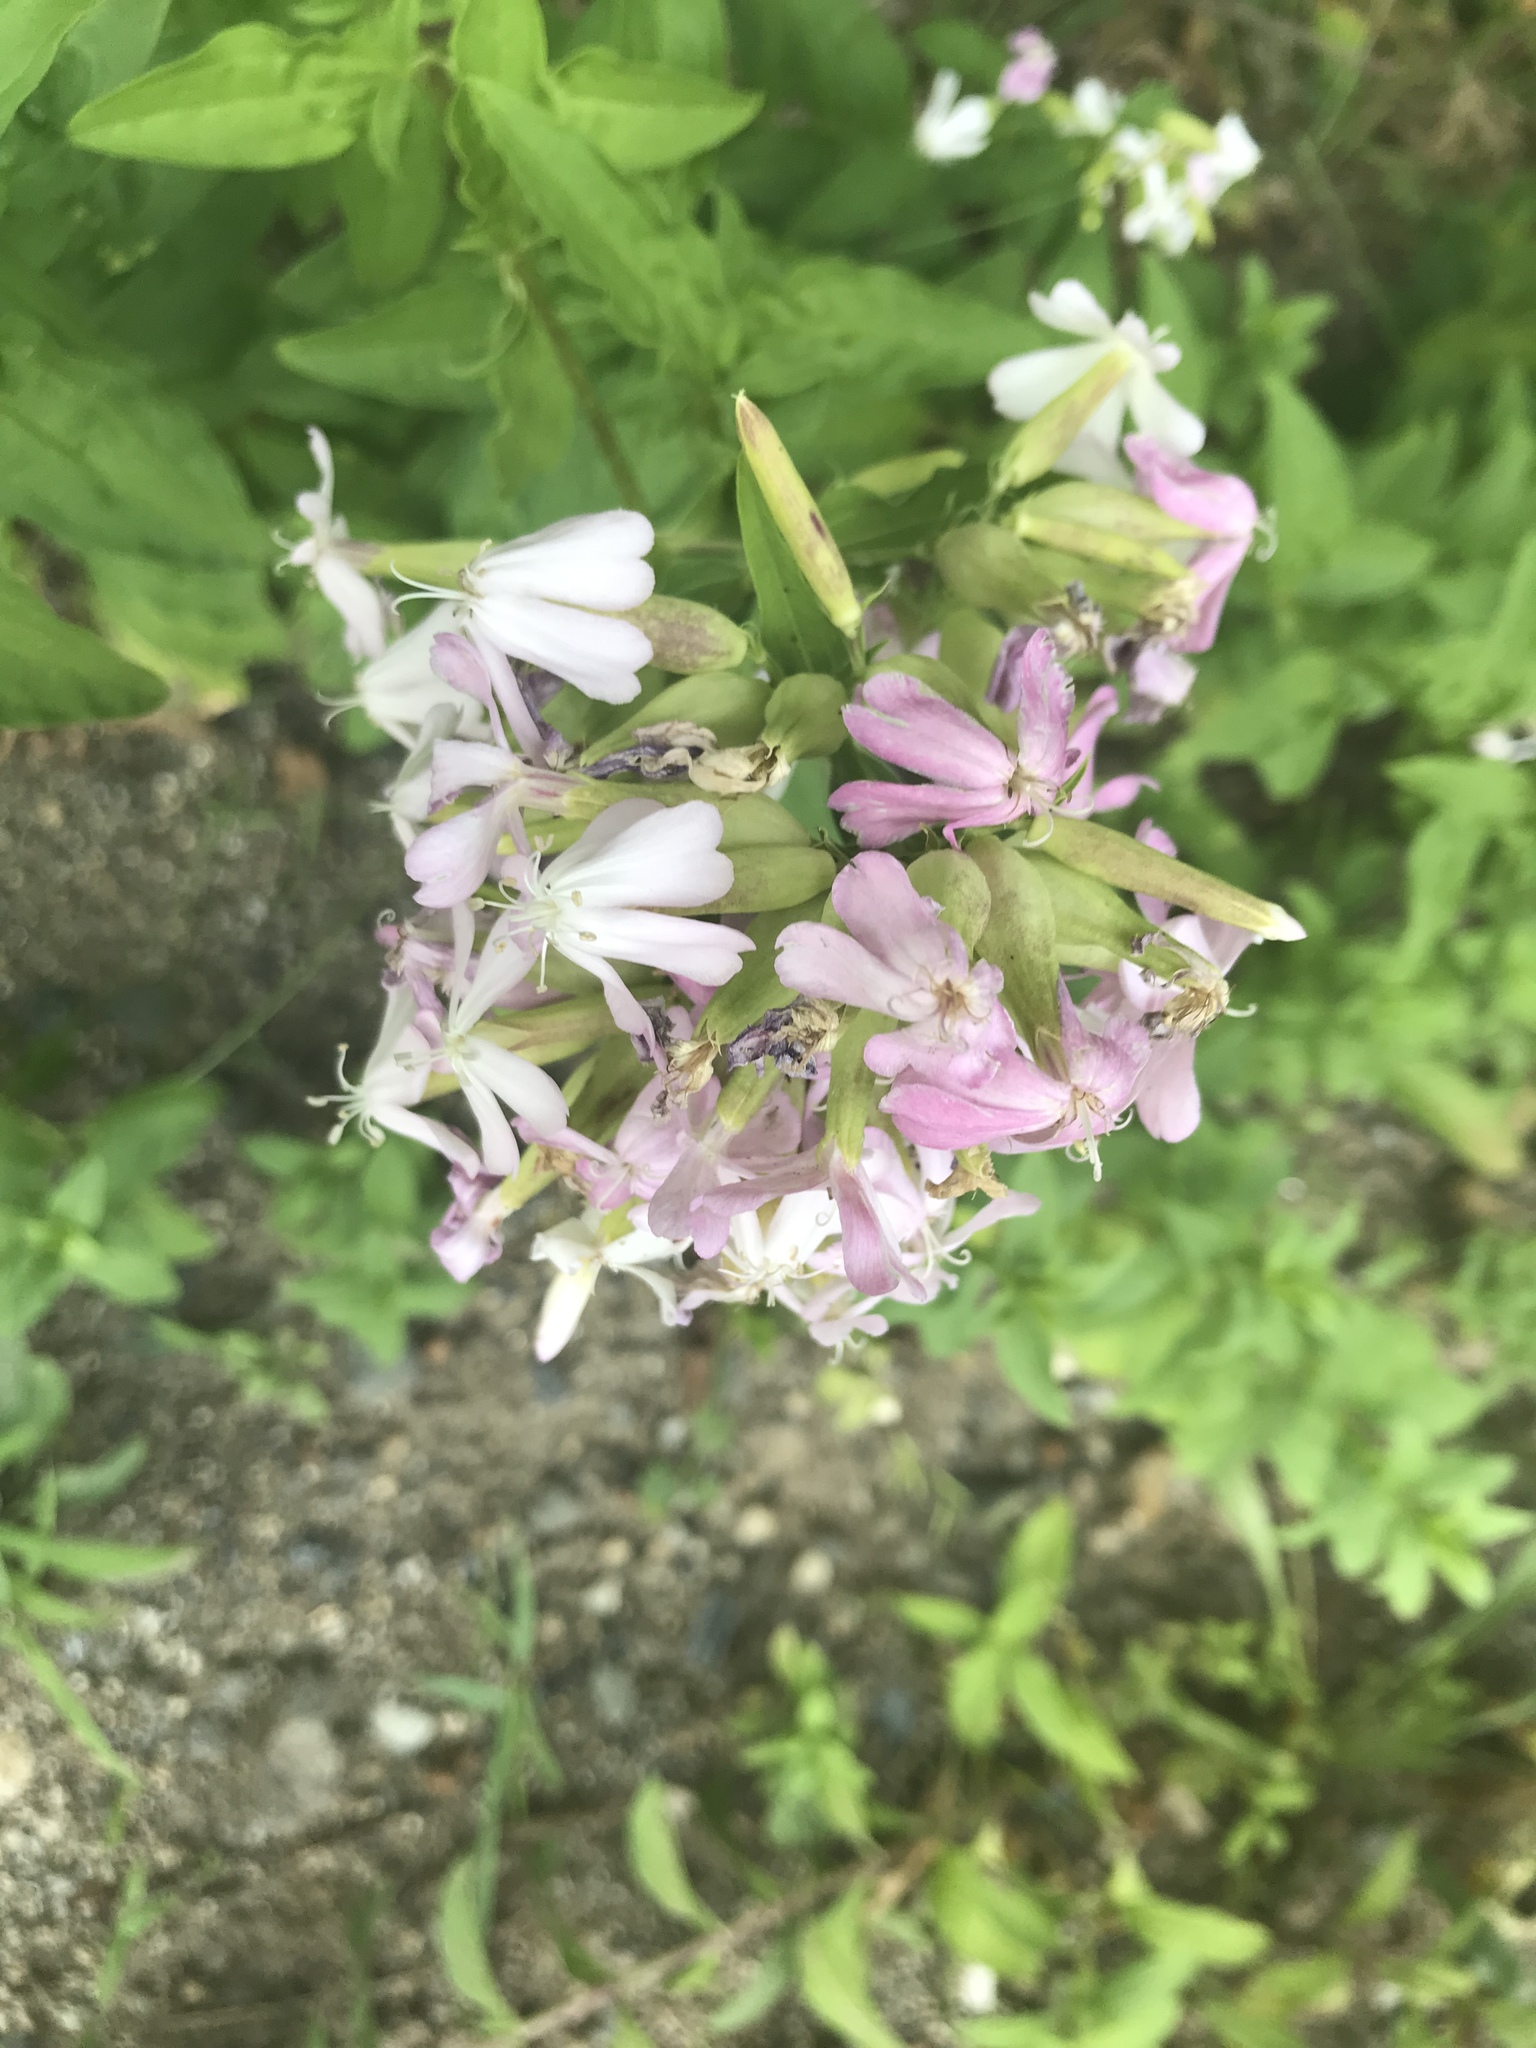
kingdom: Plantae
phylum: Tracheophyta
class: Magnoliopsida
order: Caryophyllales
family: Caryophyllaceae
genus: Saponaria
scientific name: Saponaria officinalis
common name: Soapwort
